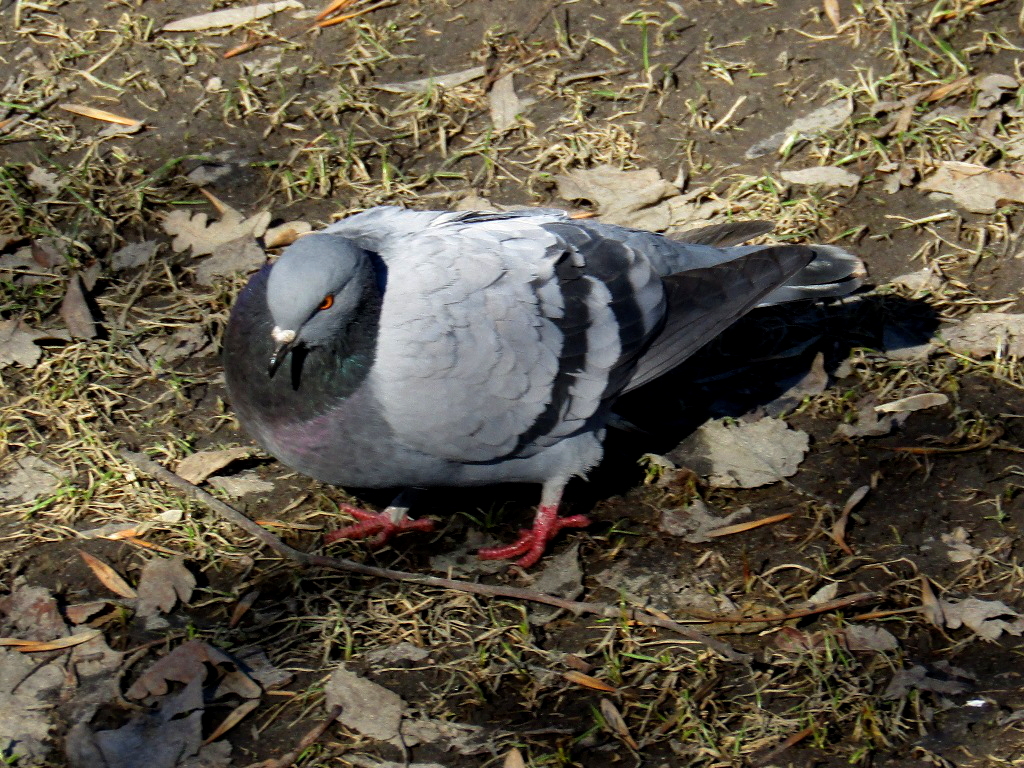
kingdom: Animalia
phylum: Chordata
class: Aves
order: Columbiformes
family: Columbidae
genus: Columba
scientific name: Columba livia
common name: Rock pigeon
